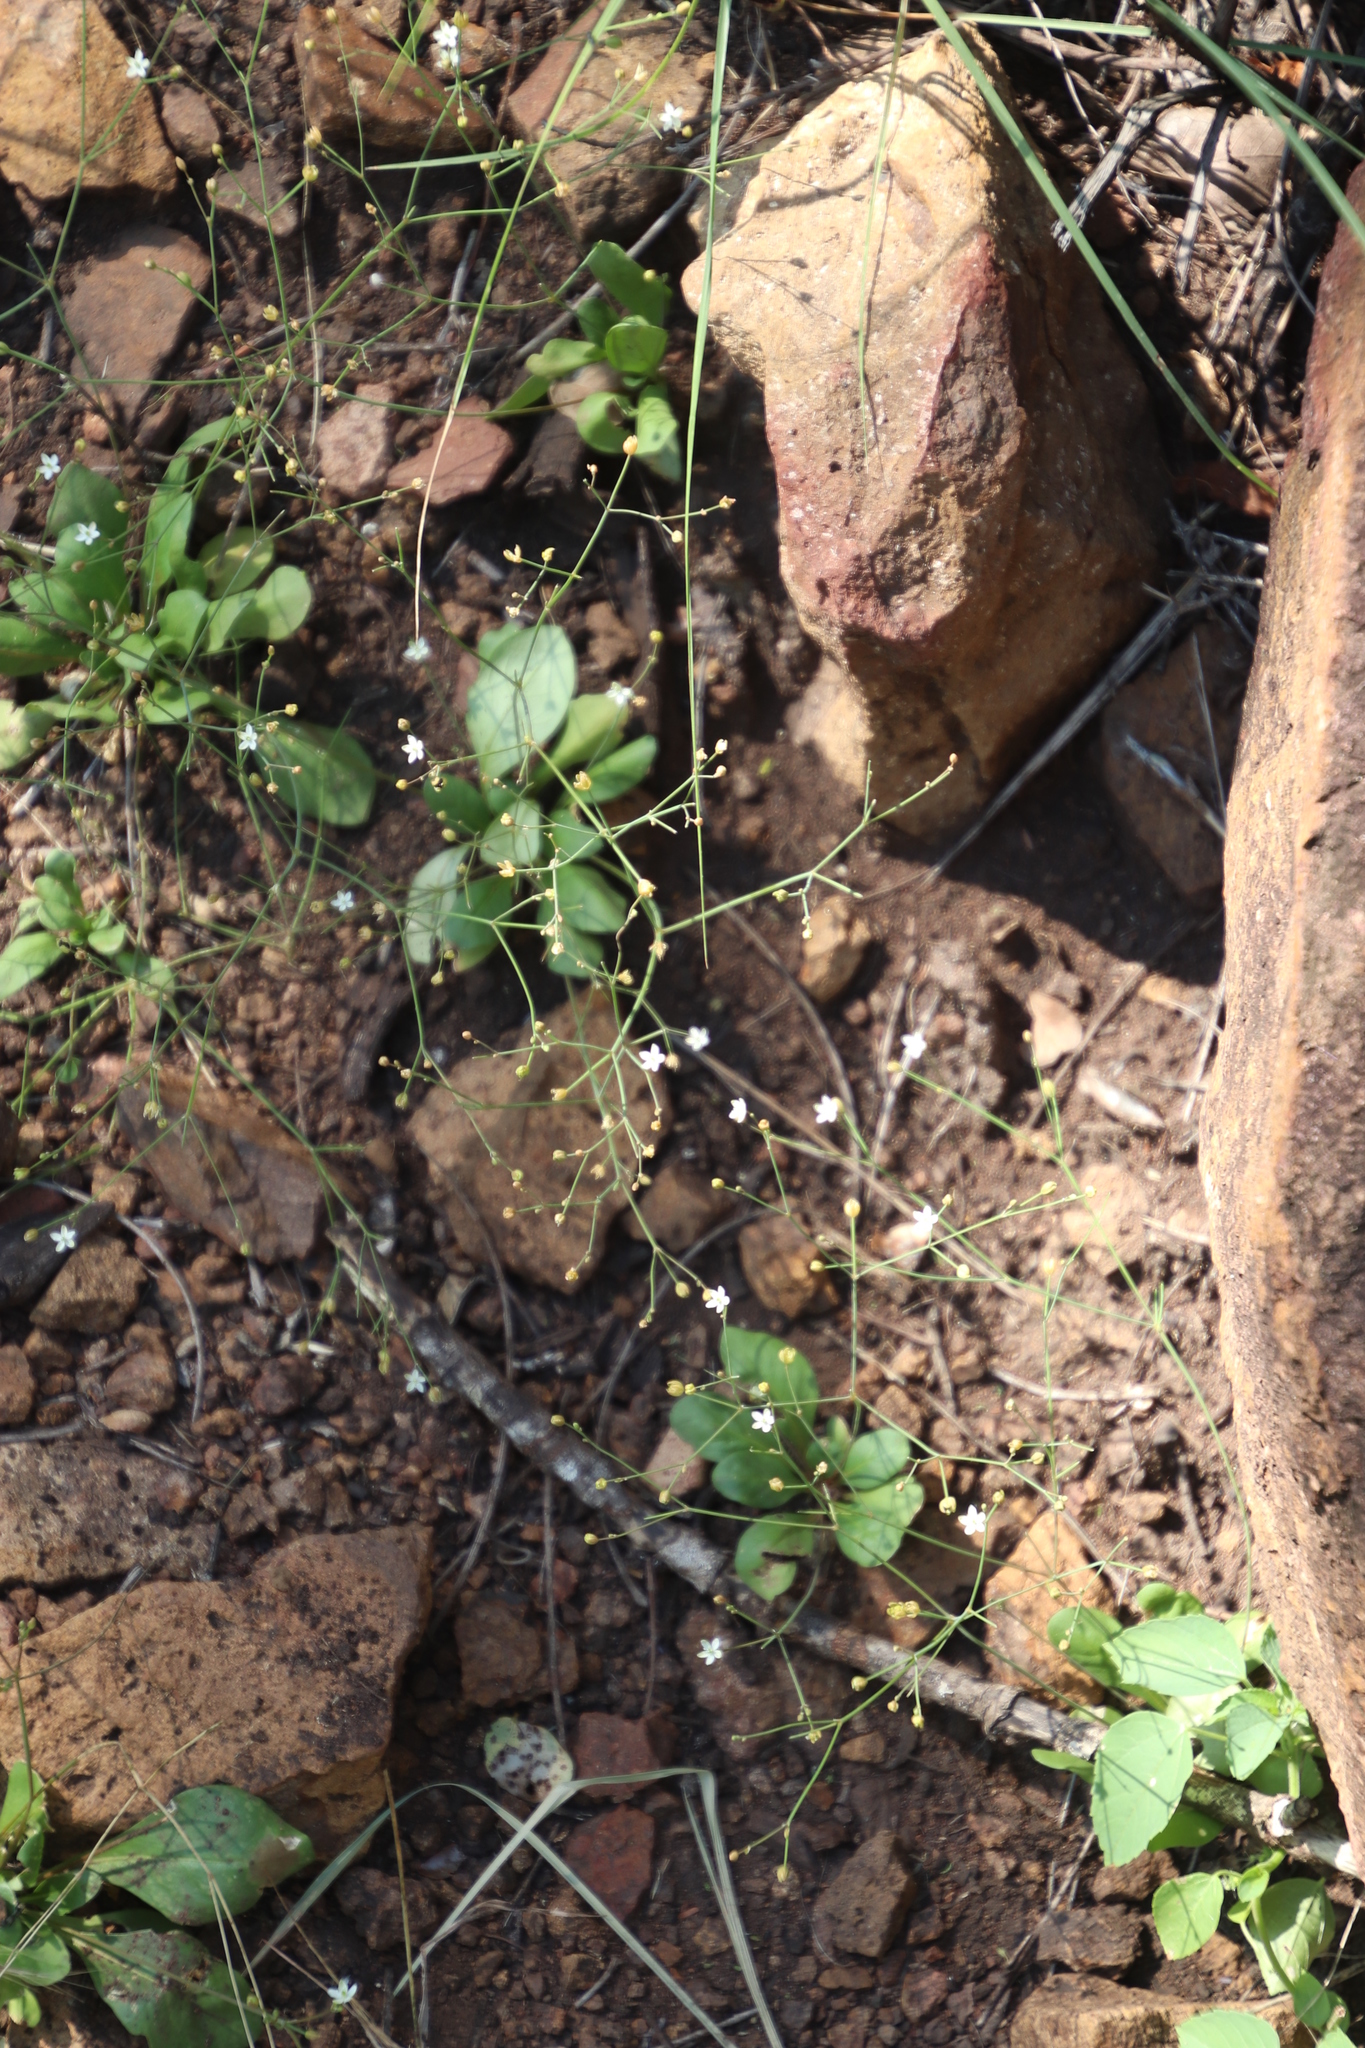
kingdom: Plantae
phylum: Tracheophyta
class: Magnoliopsida
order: Caryophyllales
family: Molluginaceae
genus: Paramollugo
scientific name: Paramollugo nudicaulis
